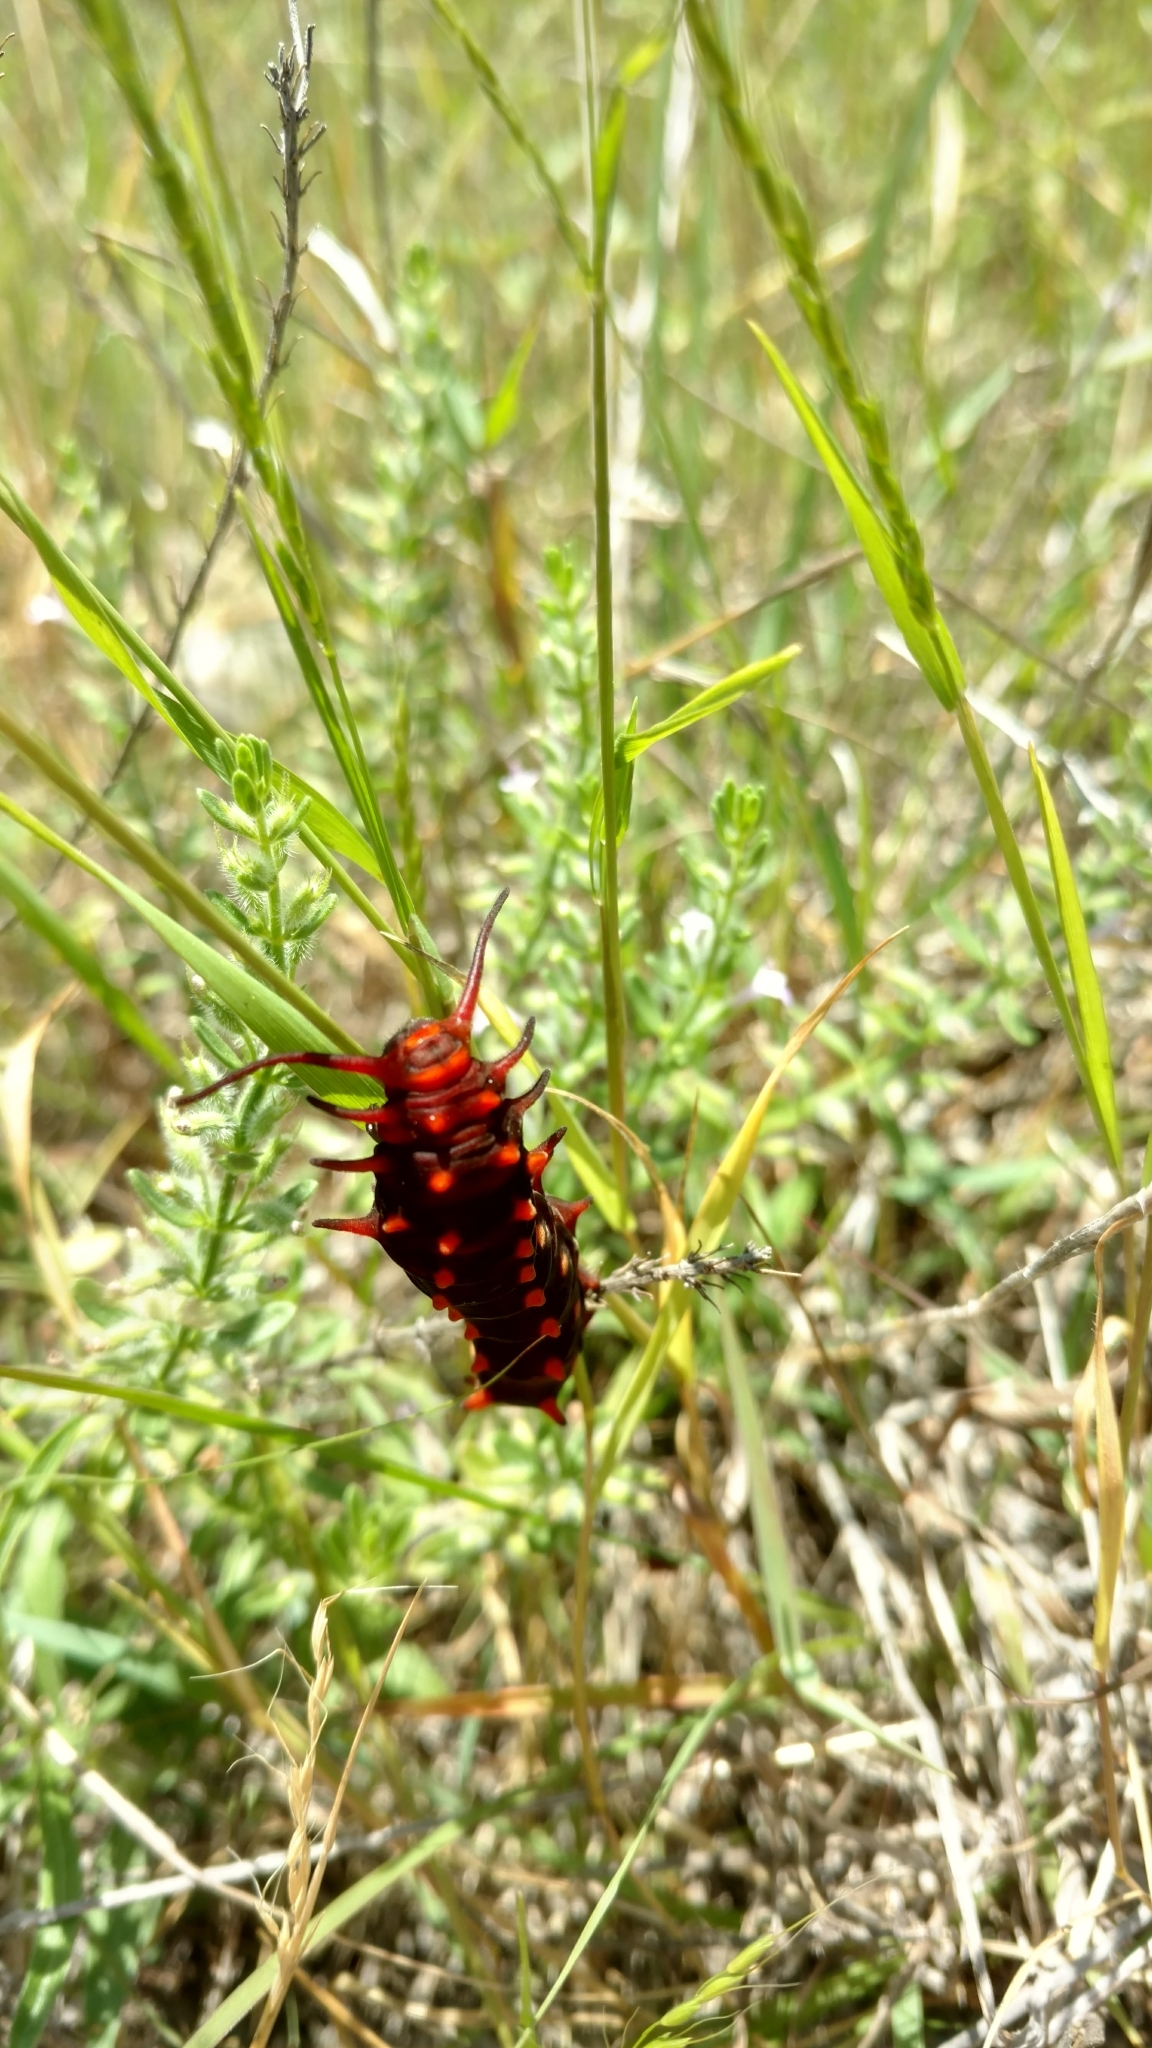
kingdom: Animalia
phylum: Arthropoda
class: Insecta
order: Lepidoptera
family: Papilionidae
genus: Battus
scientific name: Battus philenor
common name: Pipevine swallowtail
